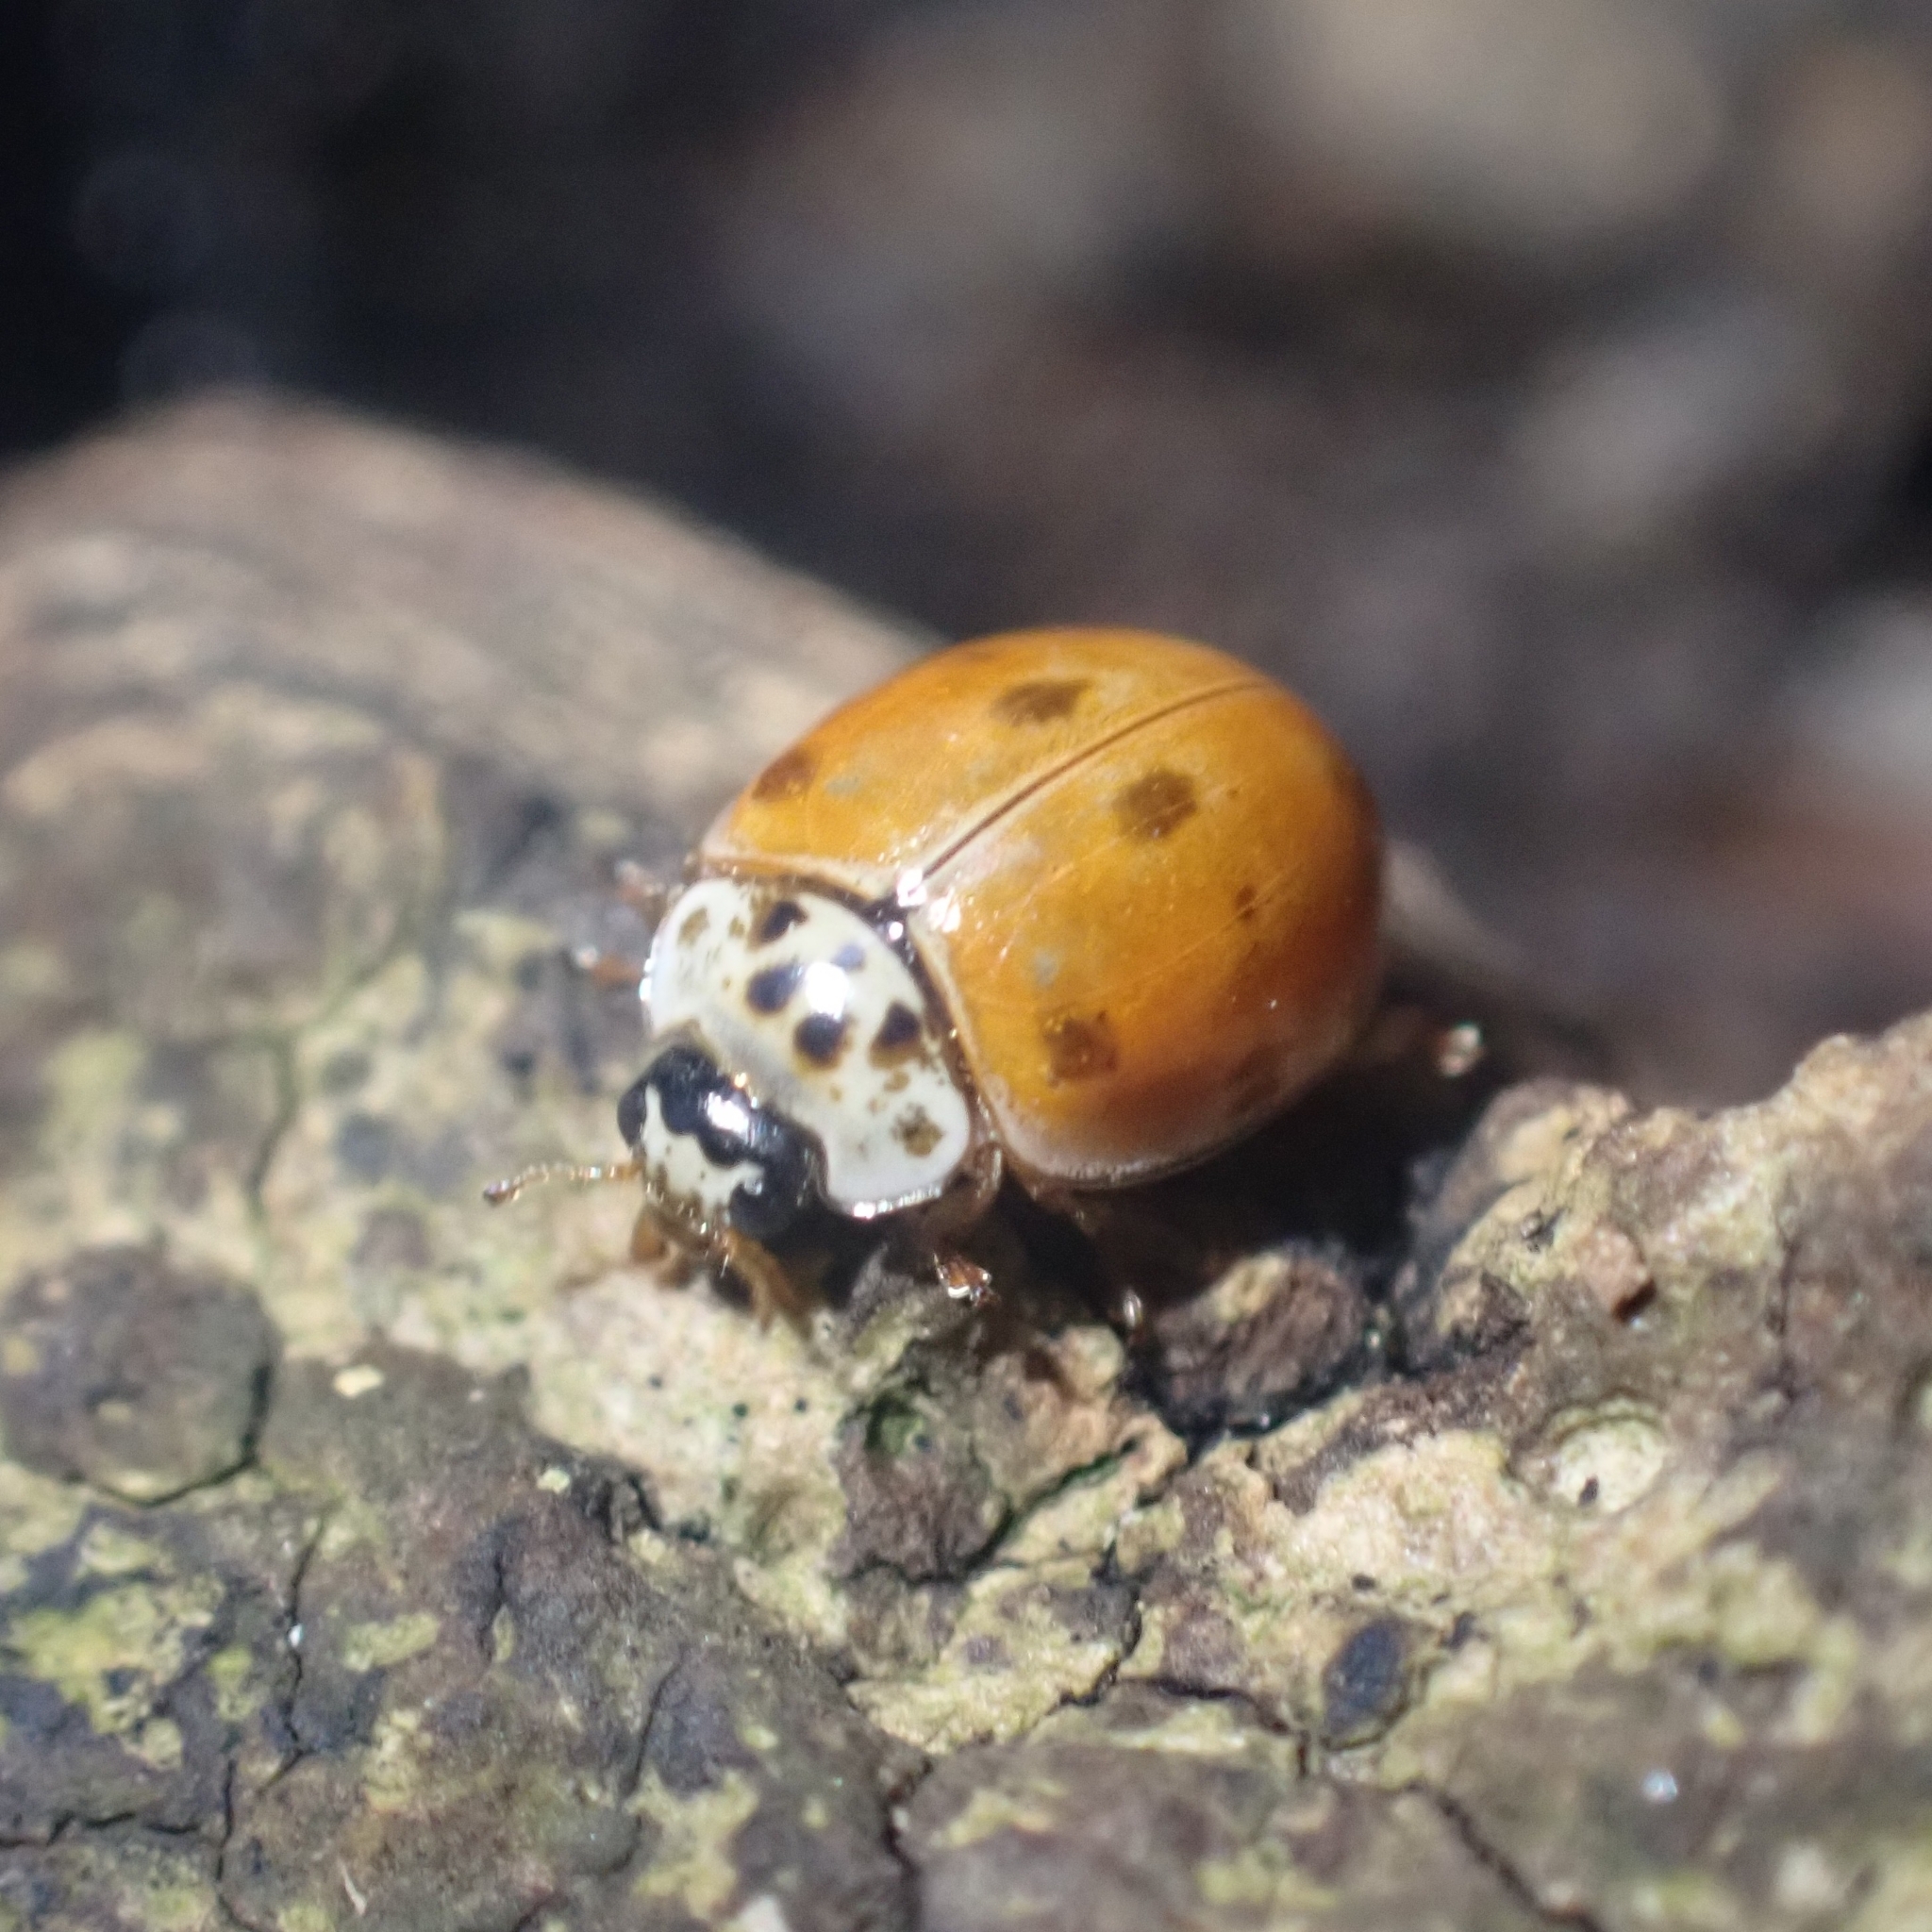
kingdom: Animalia
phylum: Arthropoda
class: Insecta
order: Coleoptera
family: Coccinellidae
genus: Adalia
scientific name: Adalia decempunctata
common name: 10-spot ladybird
